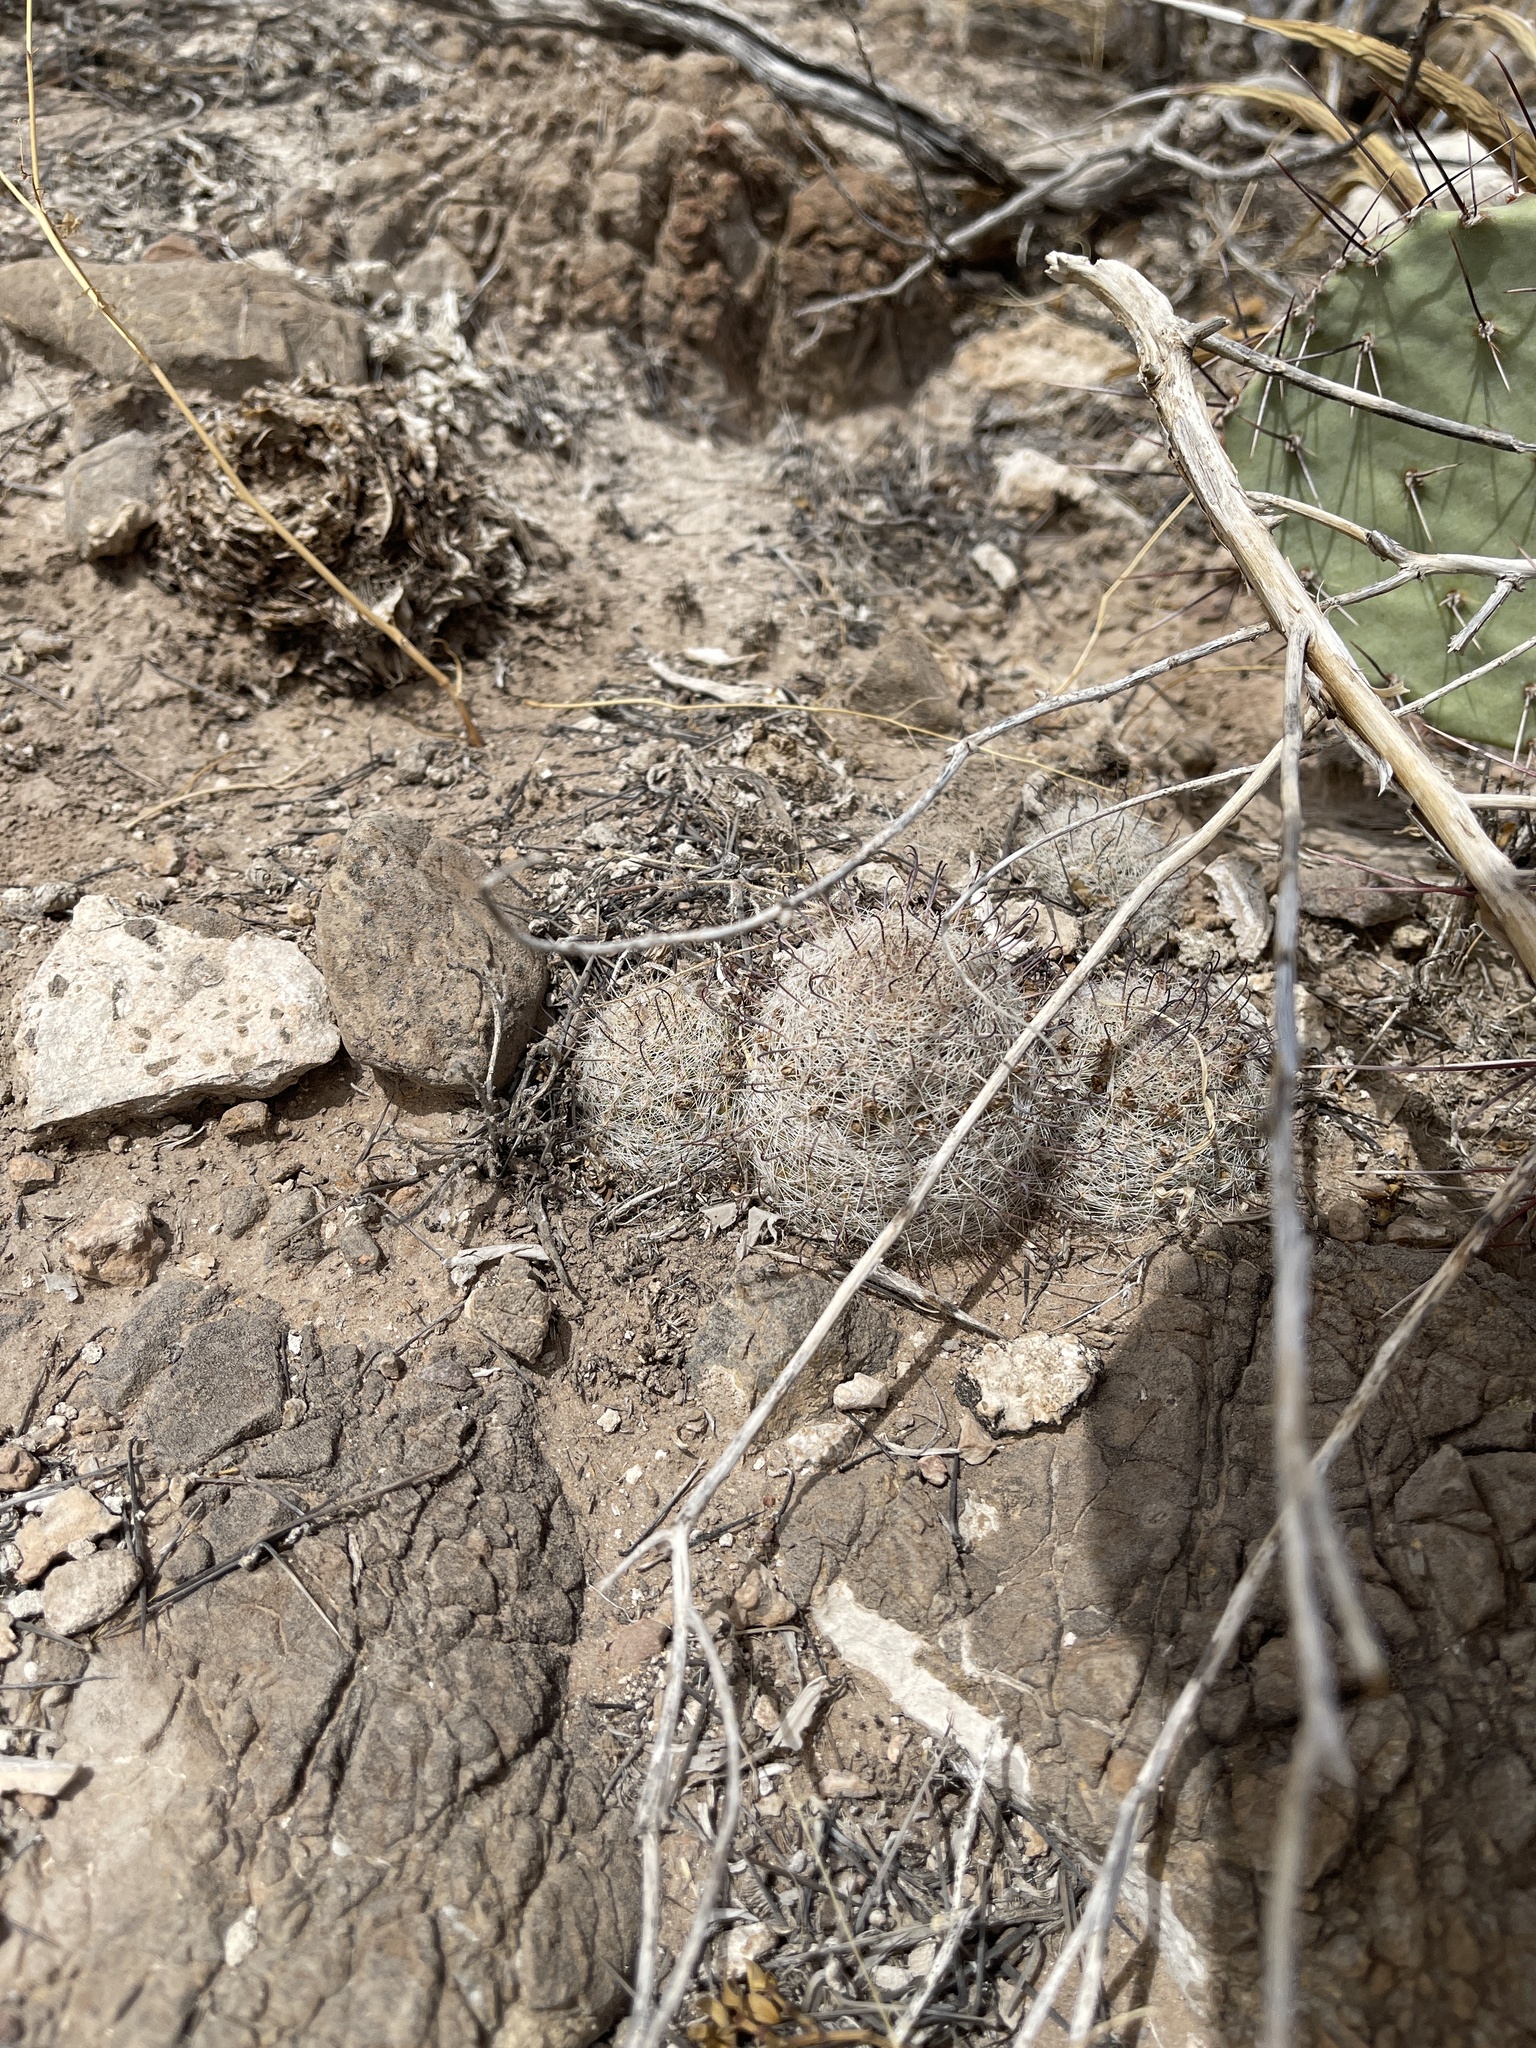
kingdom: Plantae
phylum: Tracheophyta
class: Magnoliopsida
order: Caryophyllales
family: Cactaceae
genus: Cochemiea
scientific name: Cochemiea grahamii
